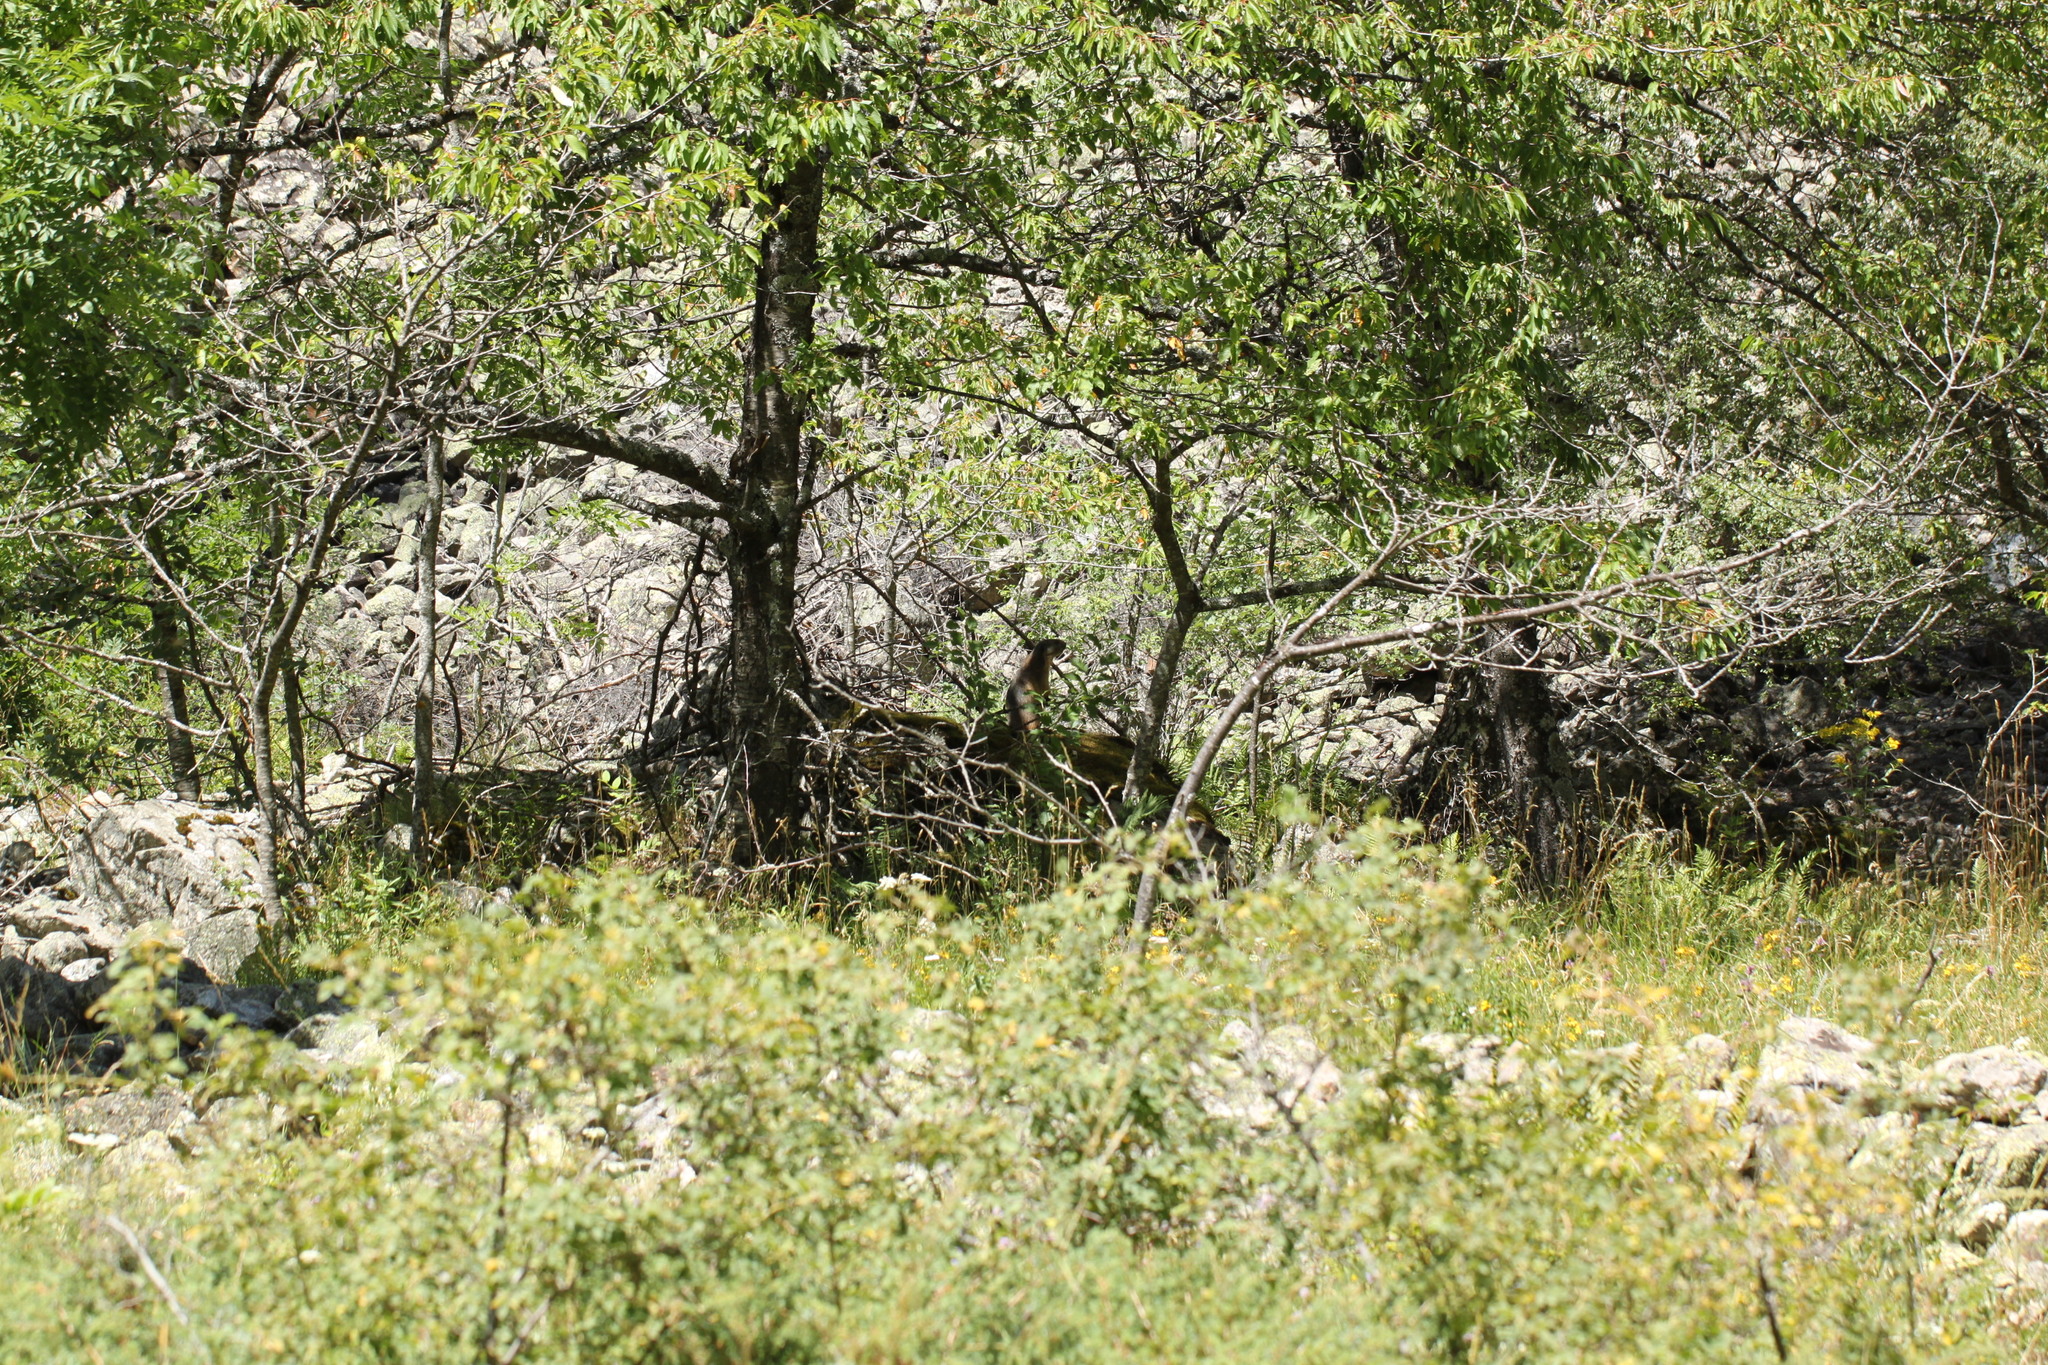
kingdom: Animalia
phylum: Chordata
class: Mammalia
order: Rodentia
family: Sciuridae
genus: Marmota
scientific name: Marmota marmota
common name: Alpine marmot
